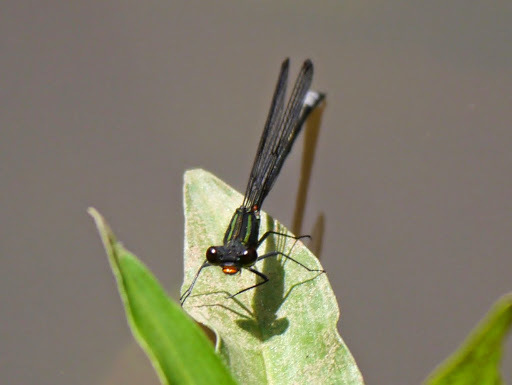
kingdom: Animalia
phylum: Arthropoda
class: Insecta
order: Odonata
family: Coenagrionidae
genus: Pseudagrion
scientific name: Pseudagrion bicoerulans
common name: Giant sprite
